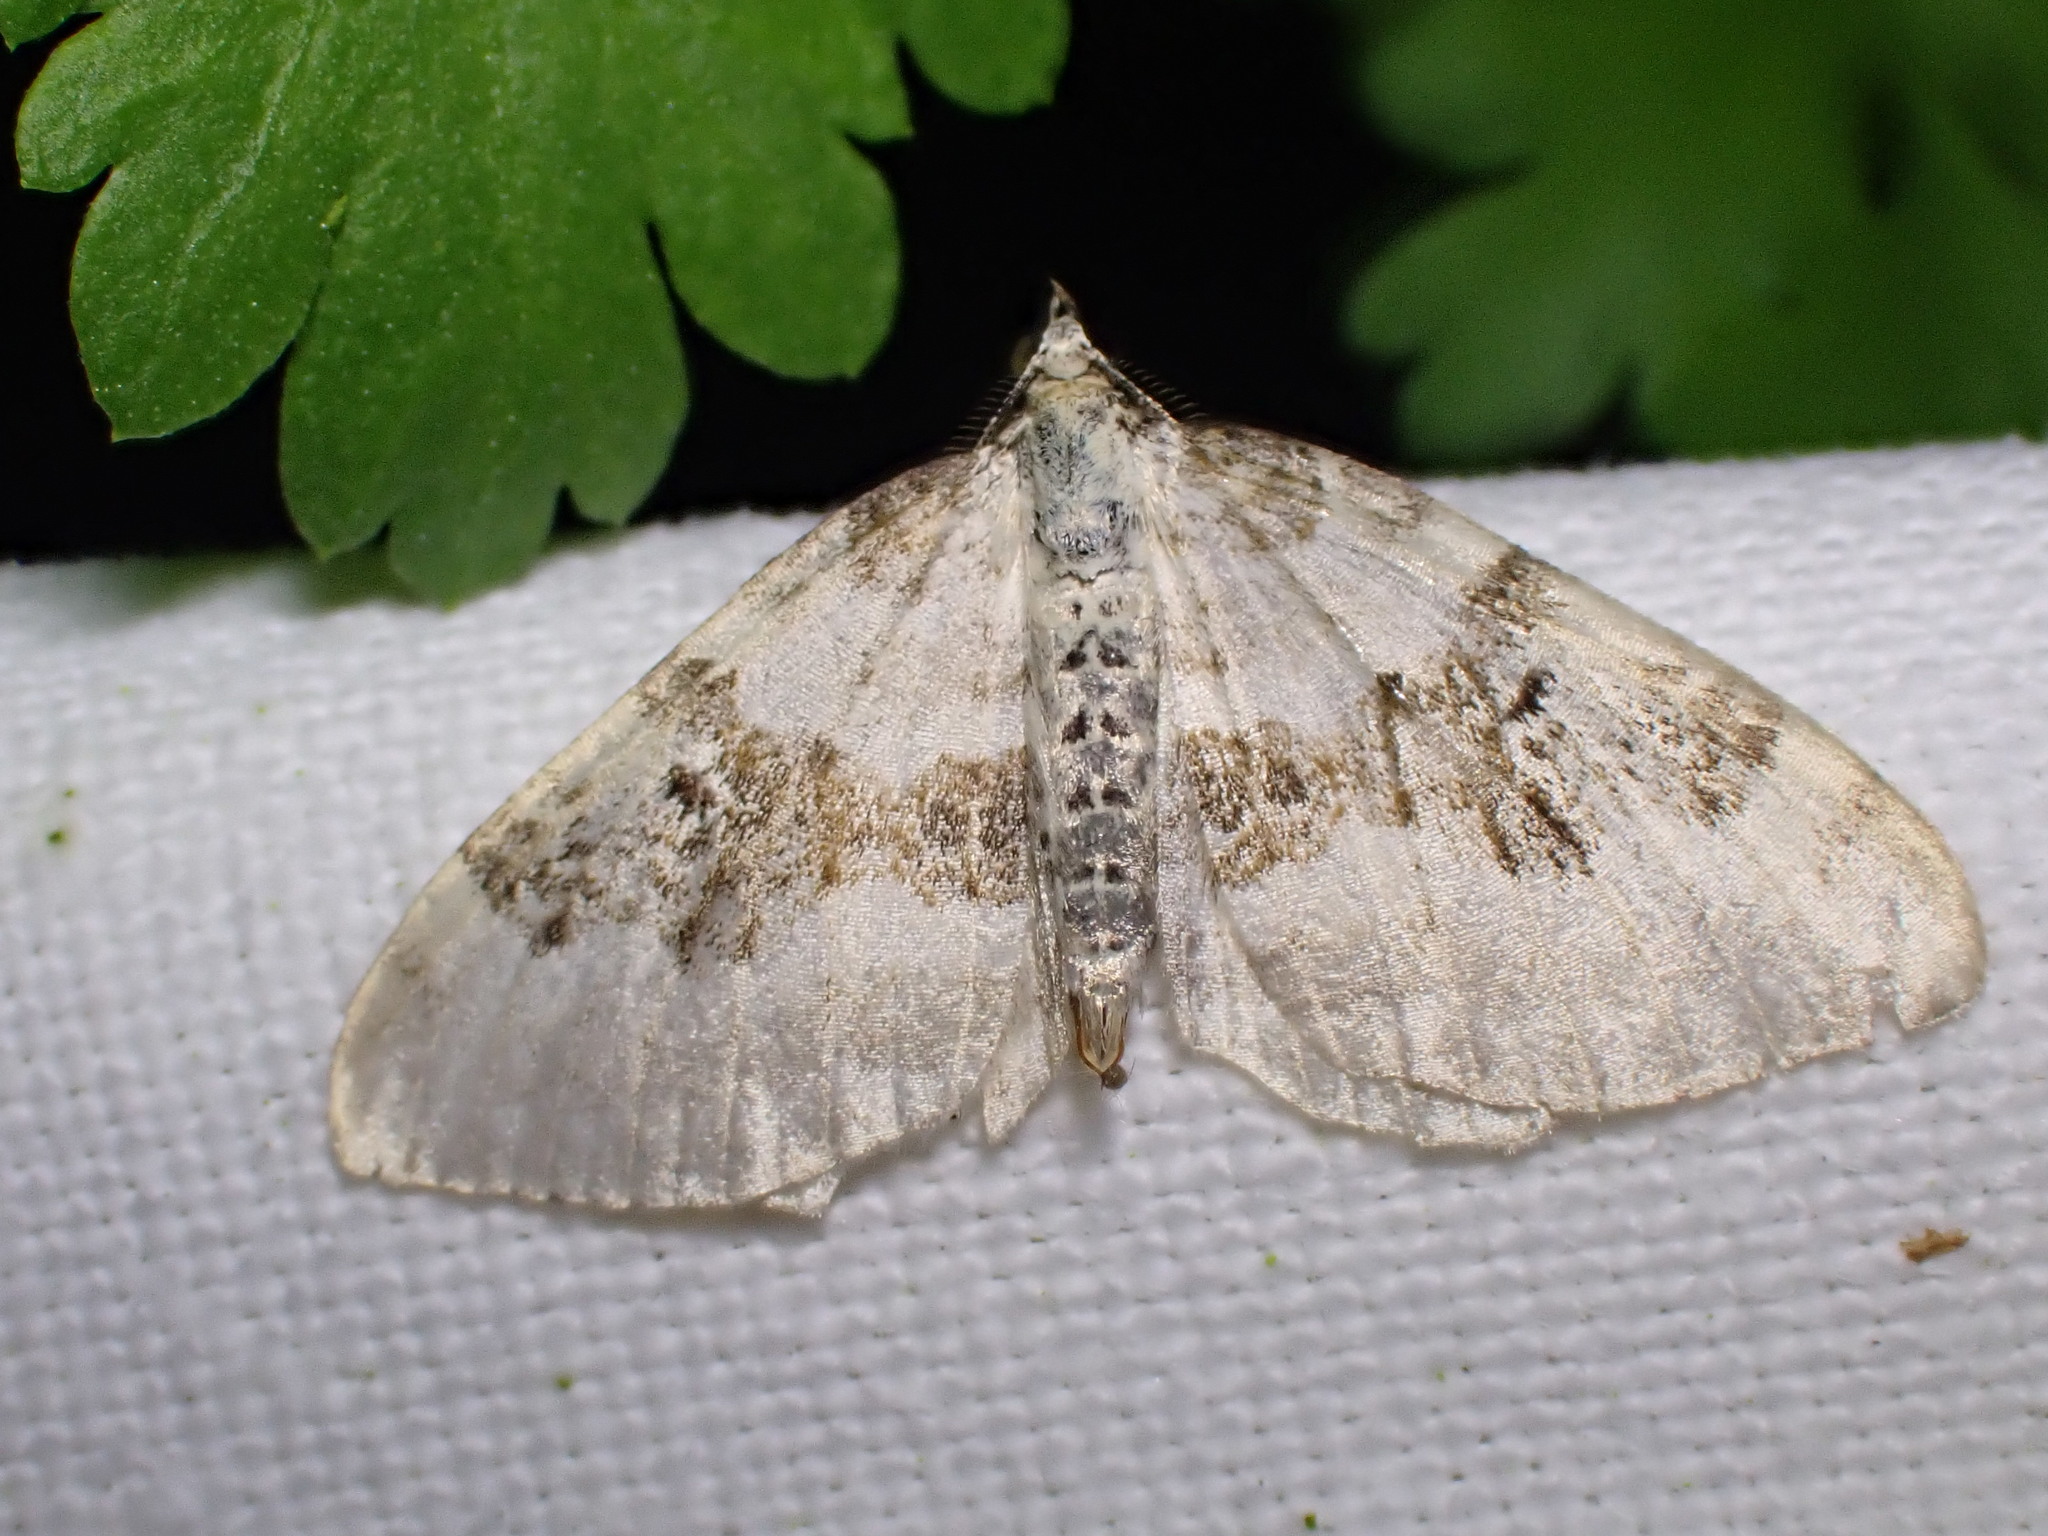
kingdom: Animalia
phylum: Arthropoda
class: Insecta
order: Lepidoptera
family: Geometridae
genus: Xanthorhoe
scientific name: Xanthorhoe montanata
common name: Silver-ground carpet
